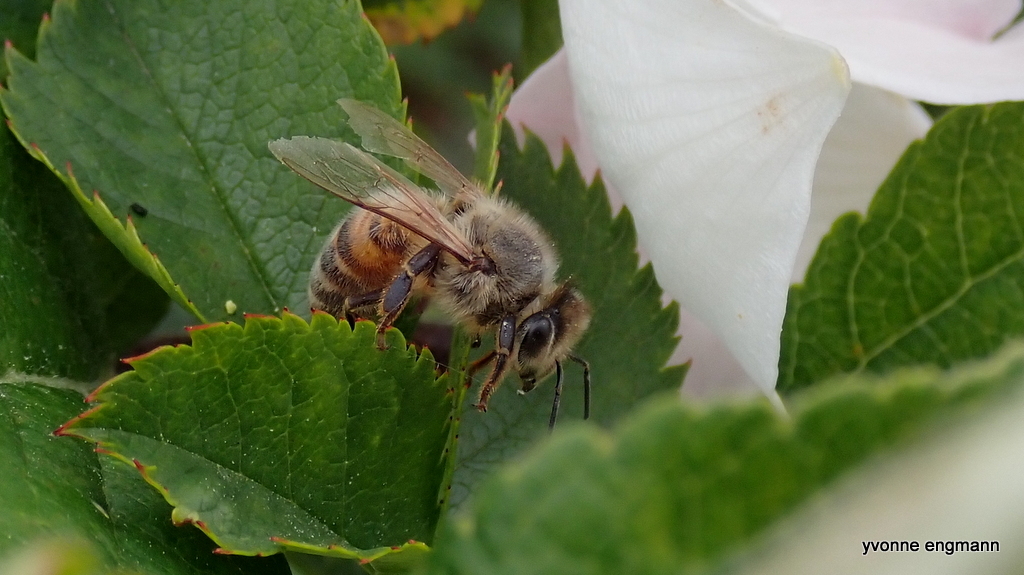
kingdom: Animalia
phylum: Arthropoda
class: Insecta
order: Hymenoptera
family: Apidae
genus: Apis
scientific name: Apis mellifera
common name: Honey bee
